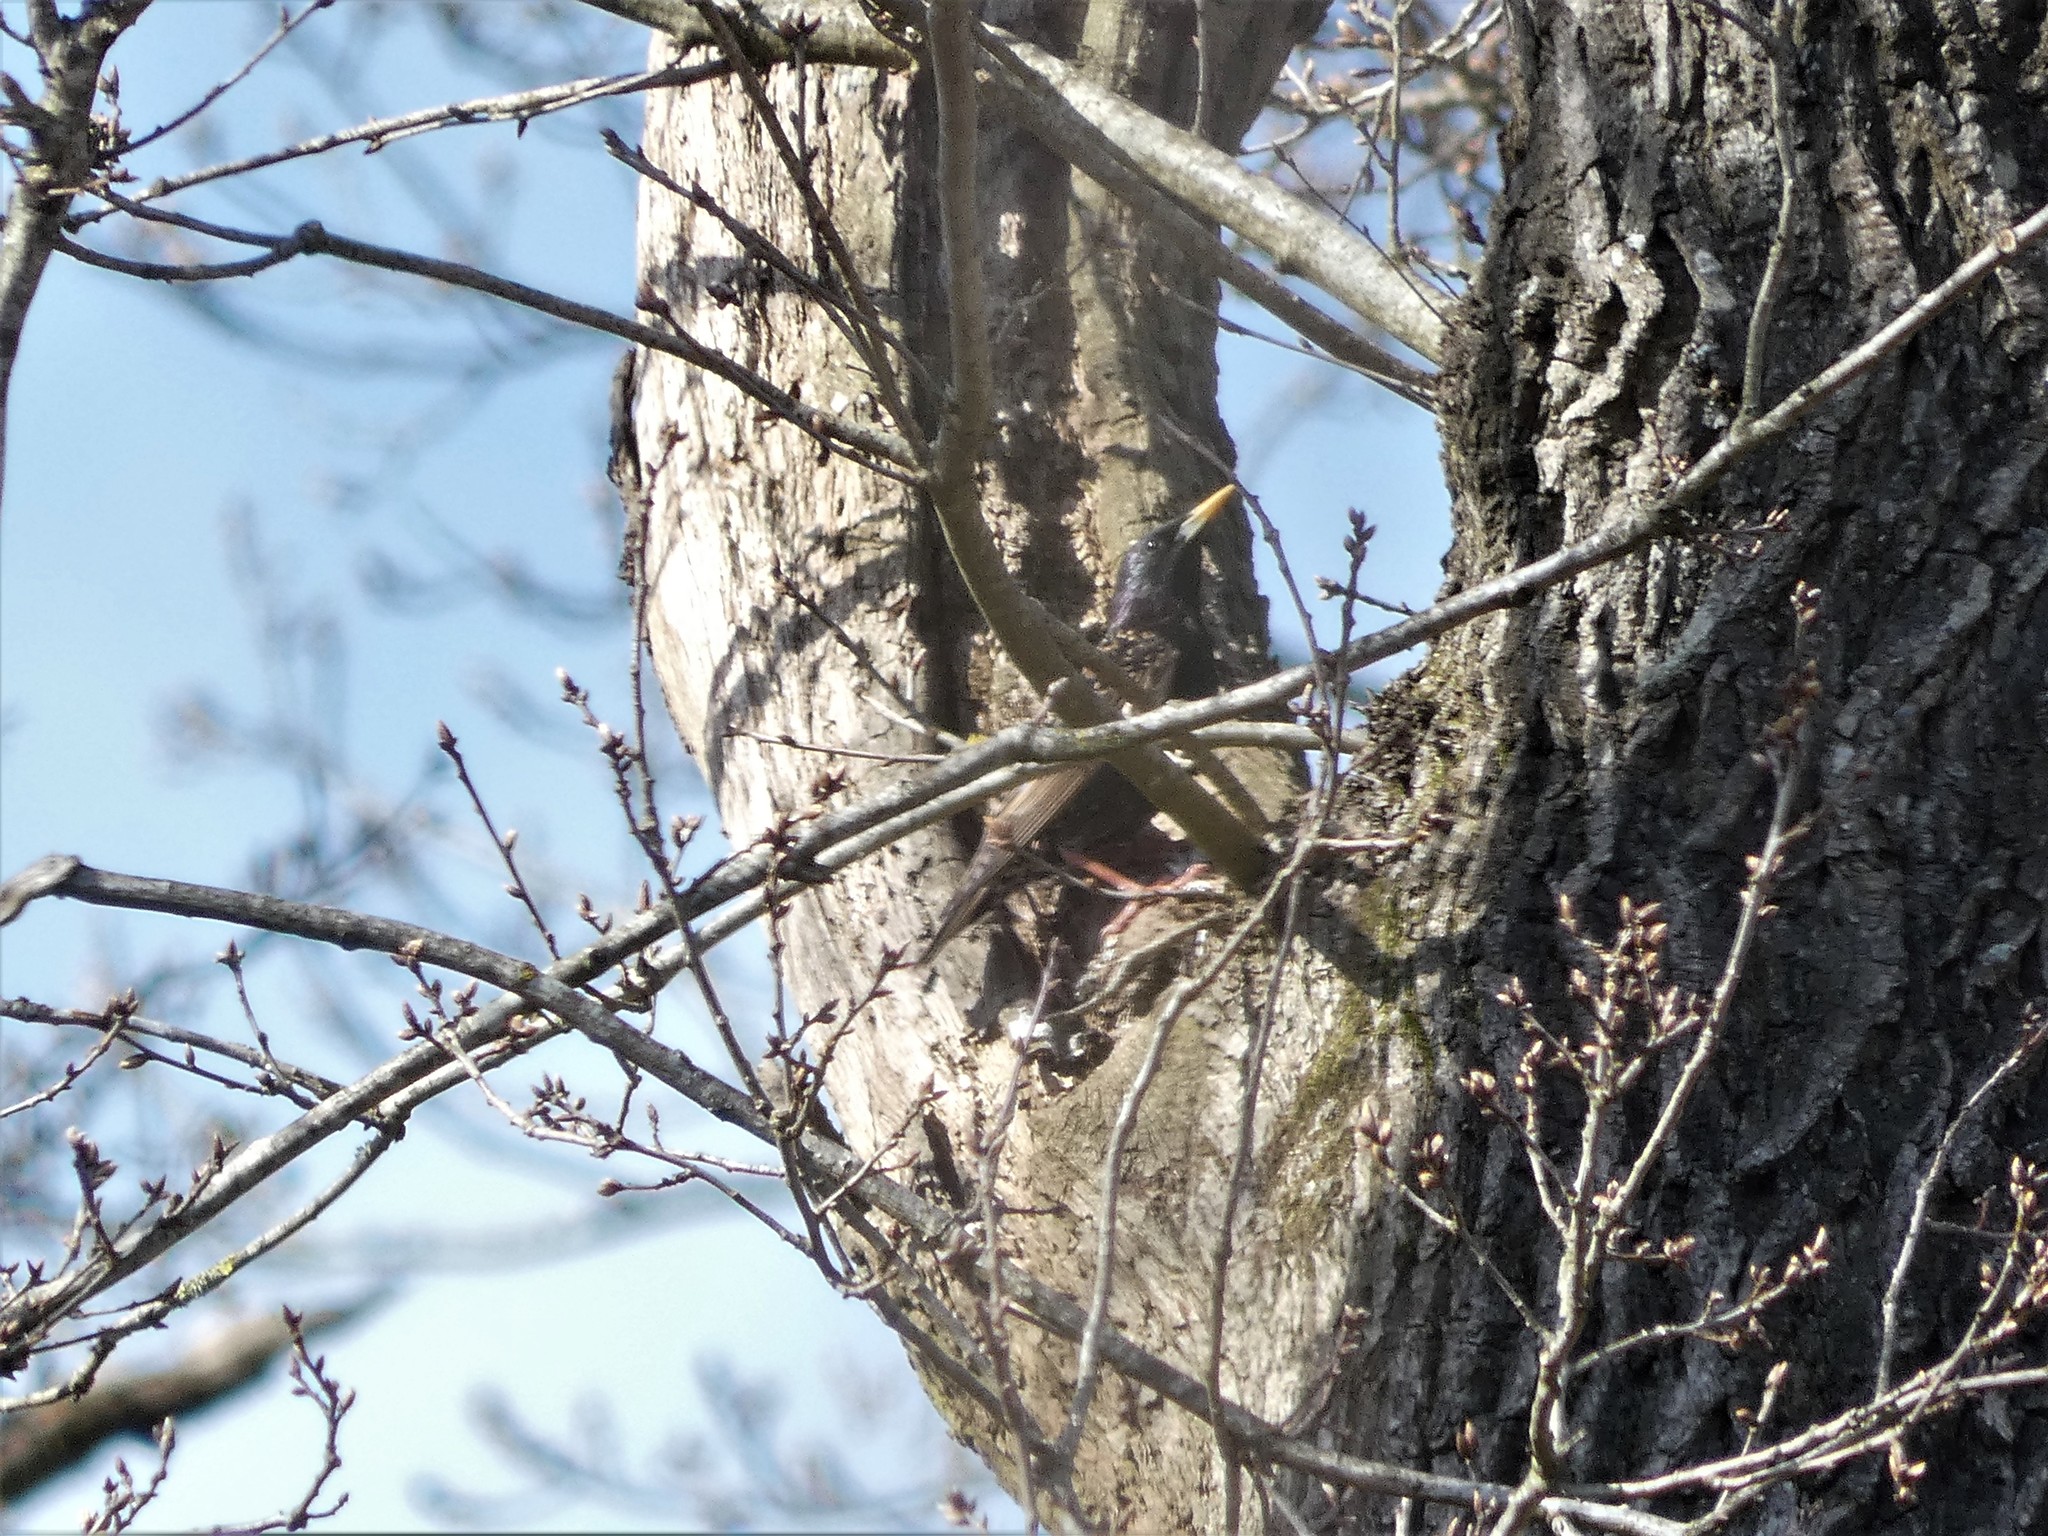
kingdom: Animalia
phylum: Chordata
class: Aves
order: Passeriformes
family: Sturnidae
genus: Sturnus
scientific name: Sturnus vulgaris
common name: Common starling
